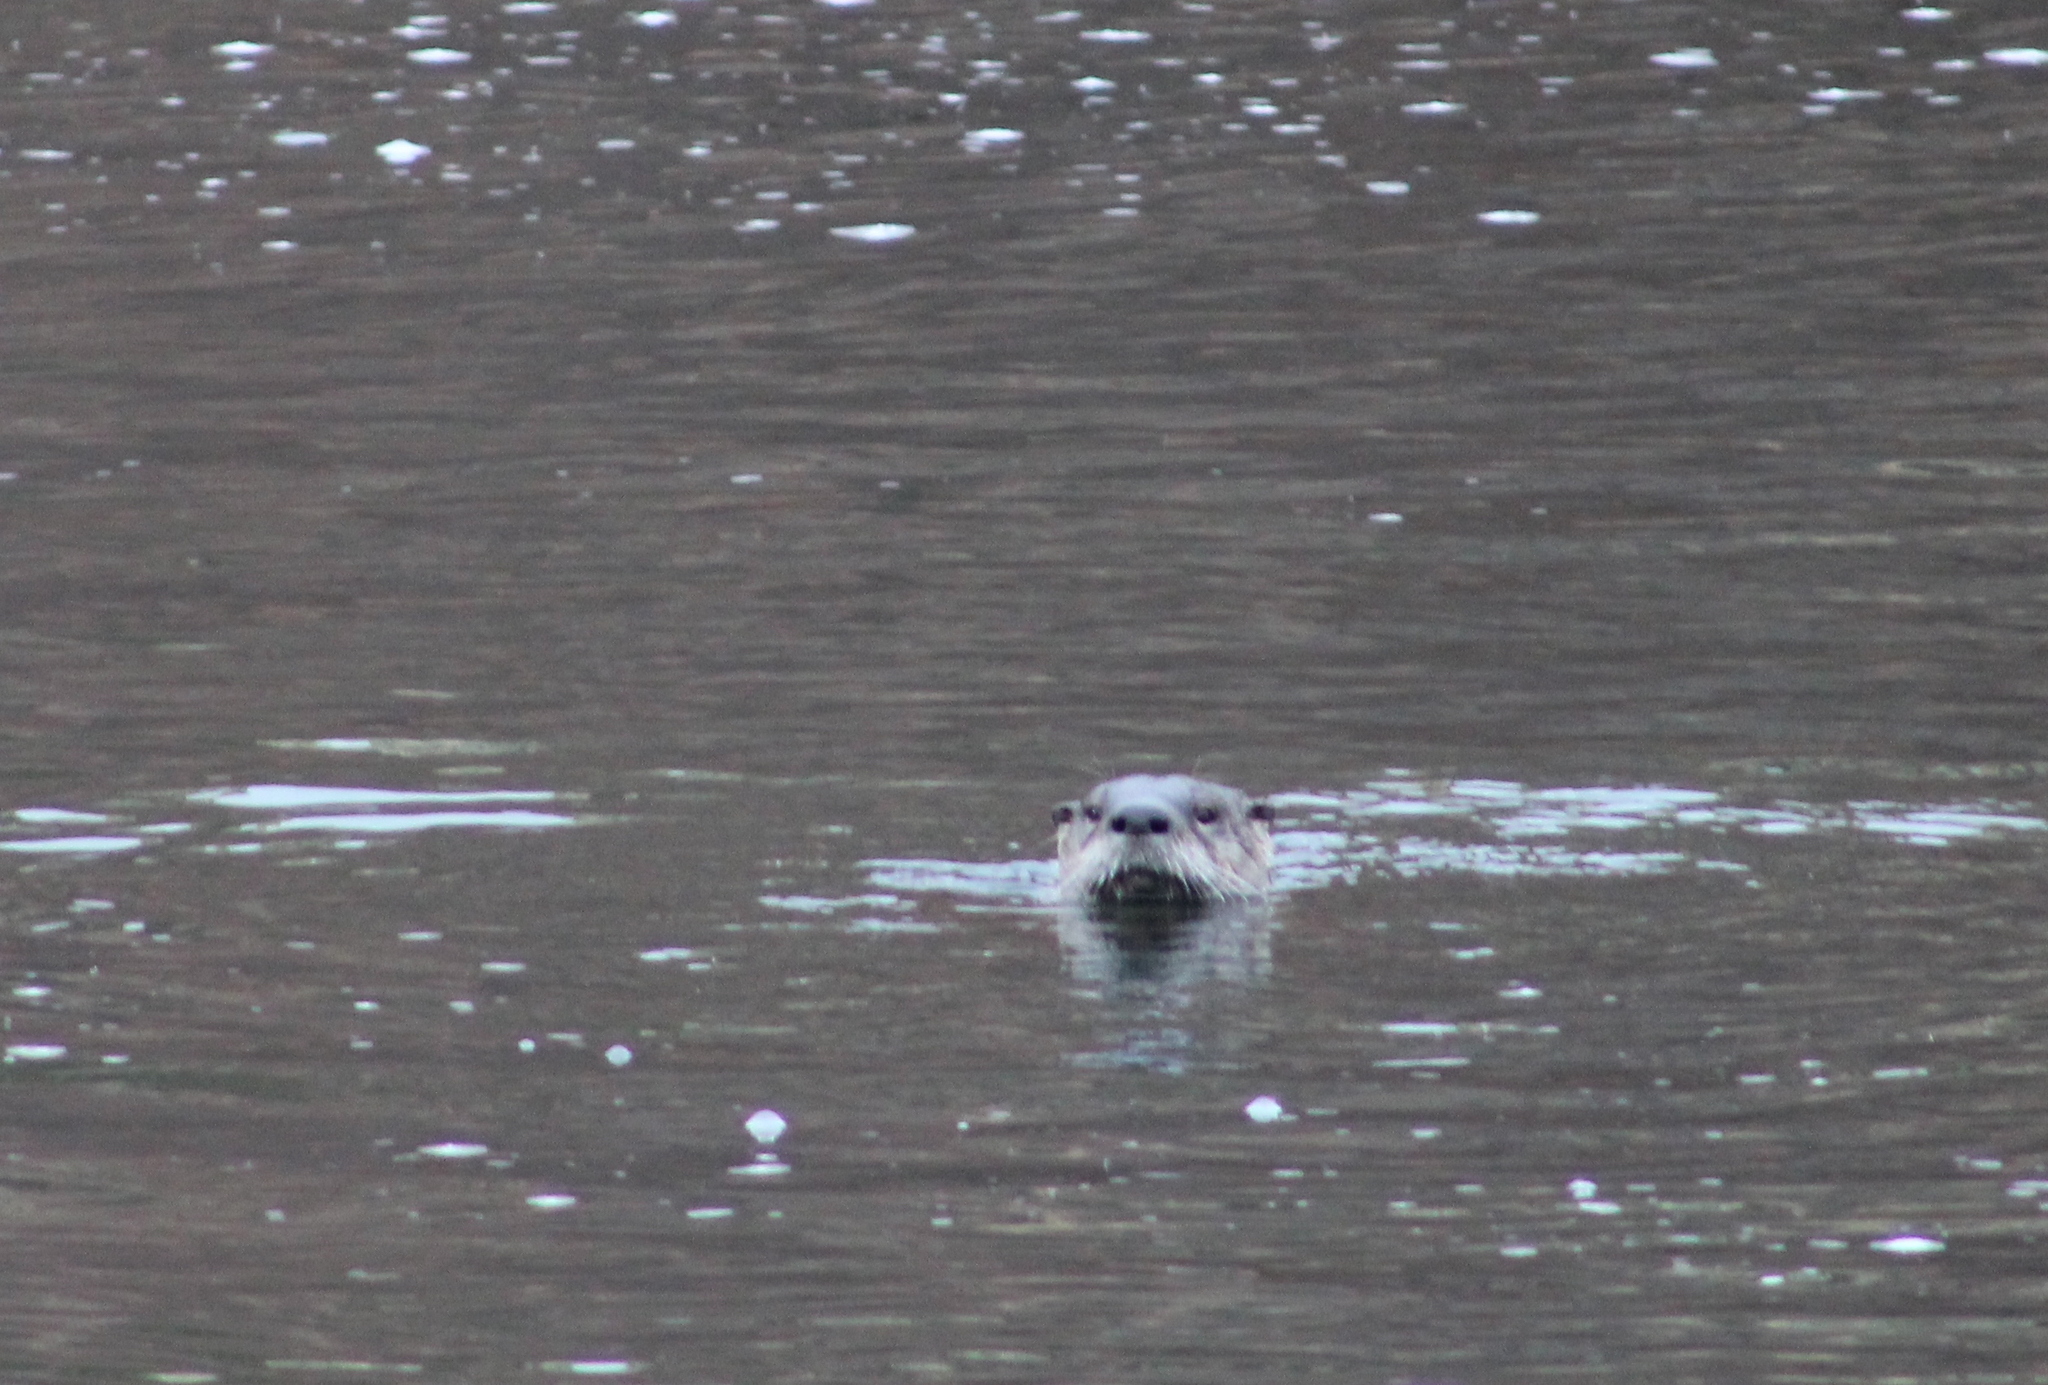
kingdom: Animalia
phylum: Chordata
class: Mammalia
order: Carnivora
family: Mustelidae
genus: Lontra
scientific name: Lontra canadensis
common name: North american river otter
